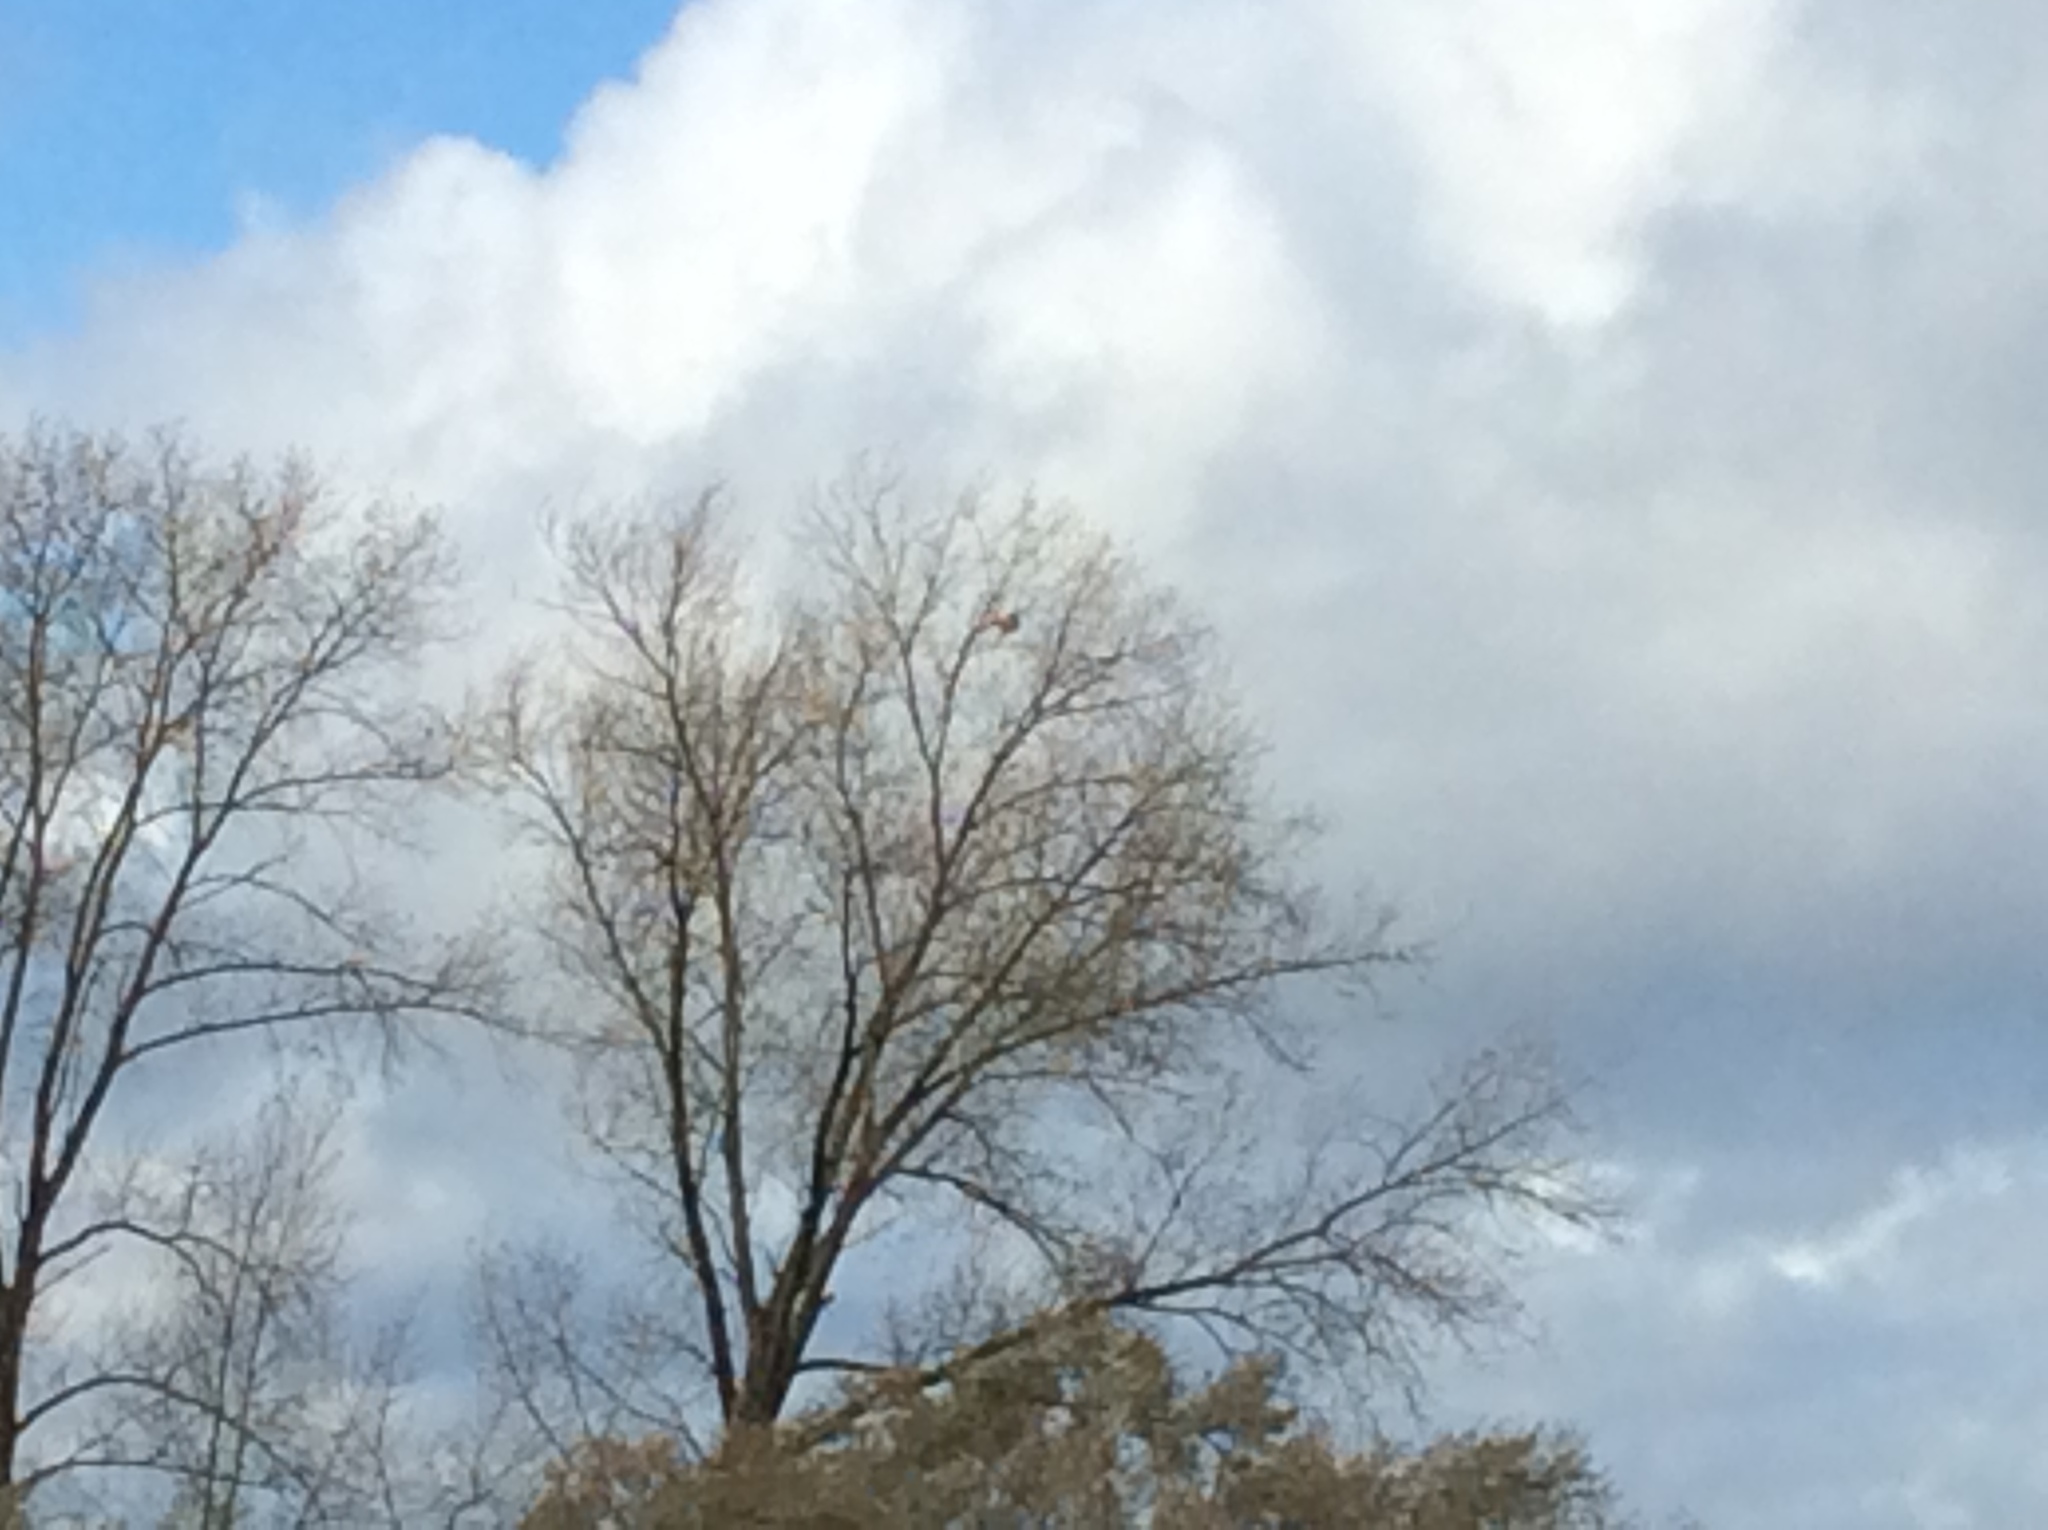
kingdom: Animalia
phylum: Arthropoda
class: Insecta
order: Hymenoptera
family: Vespidae
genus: Vespa
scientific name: Vespa velutina
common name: Asian hornet
